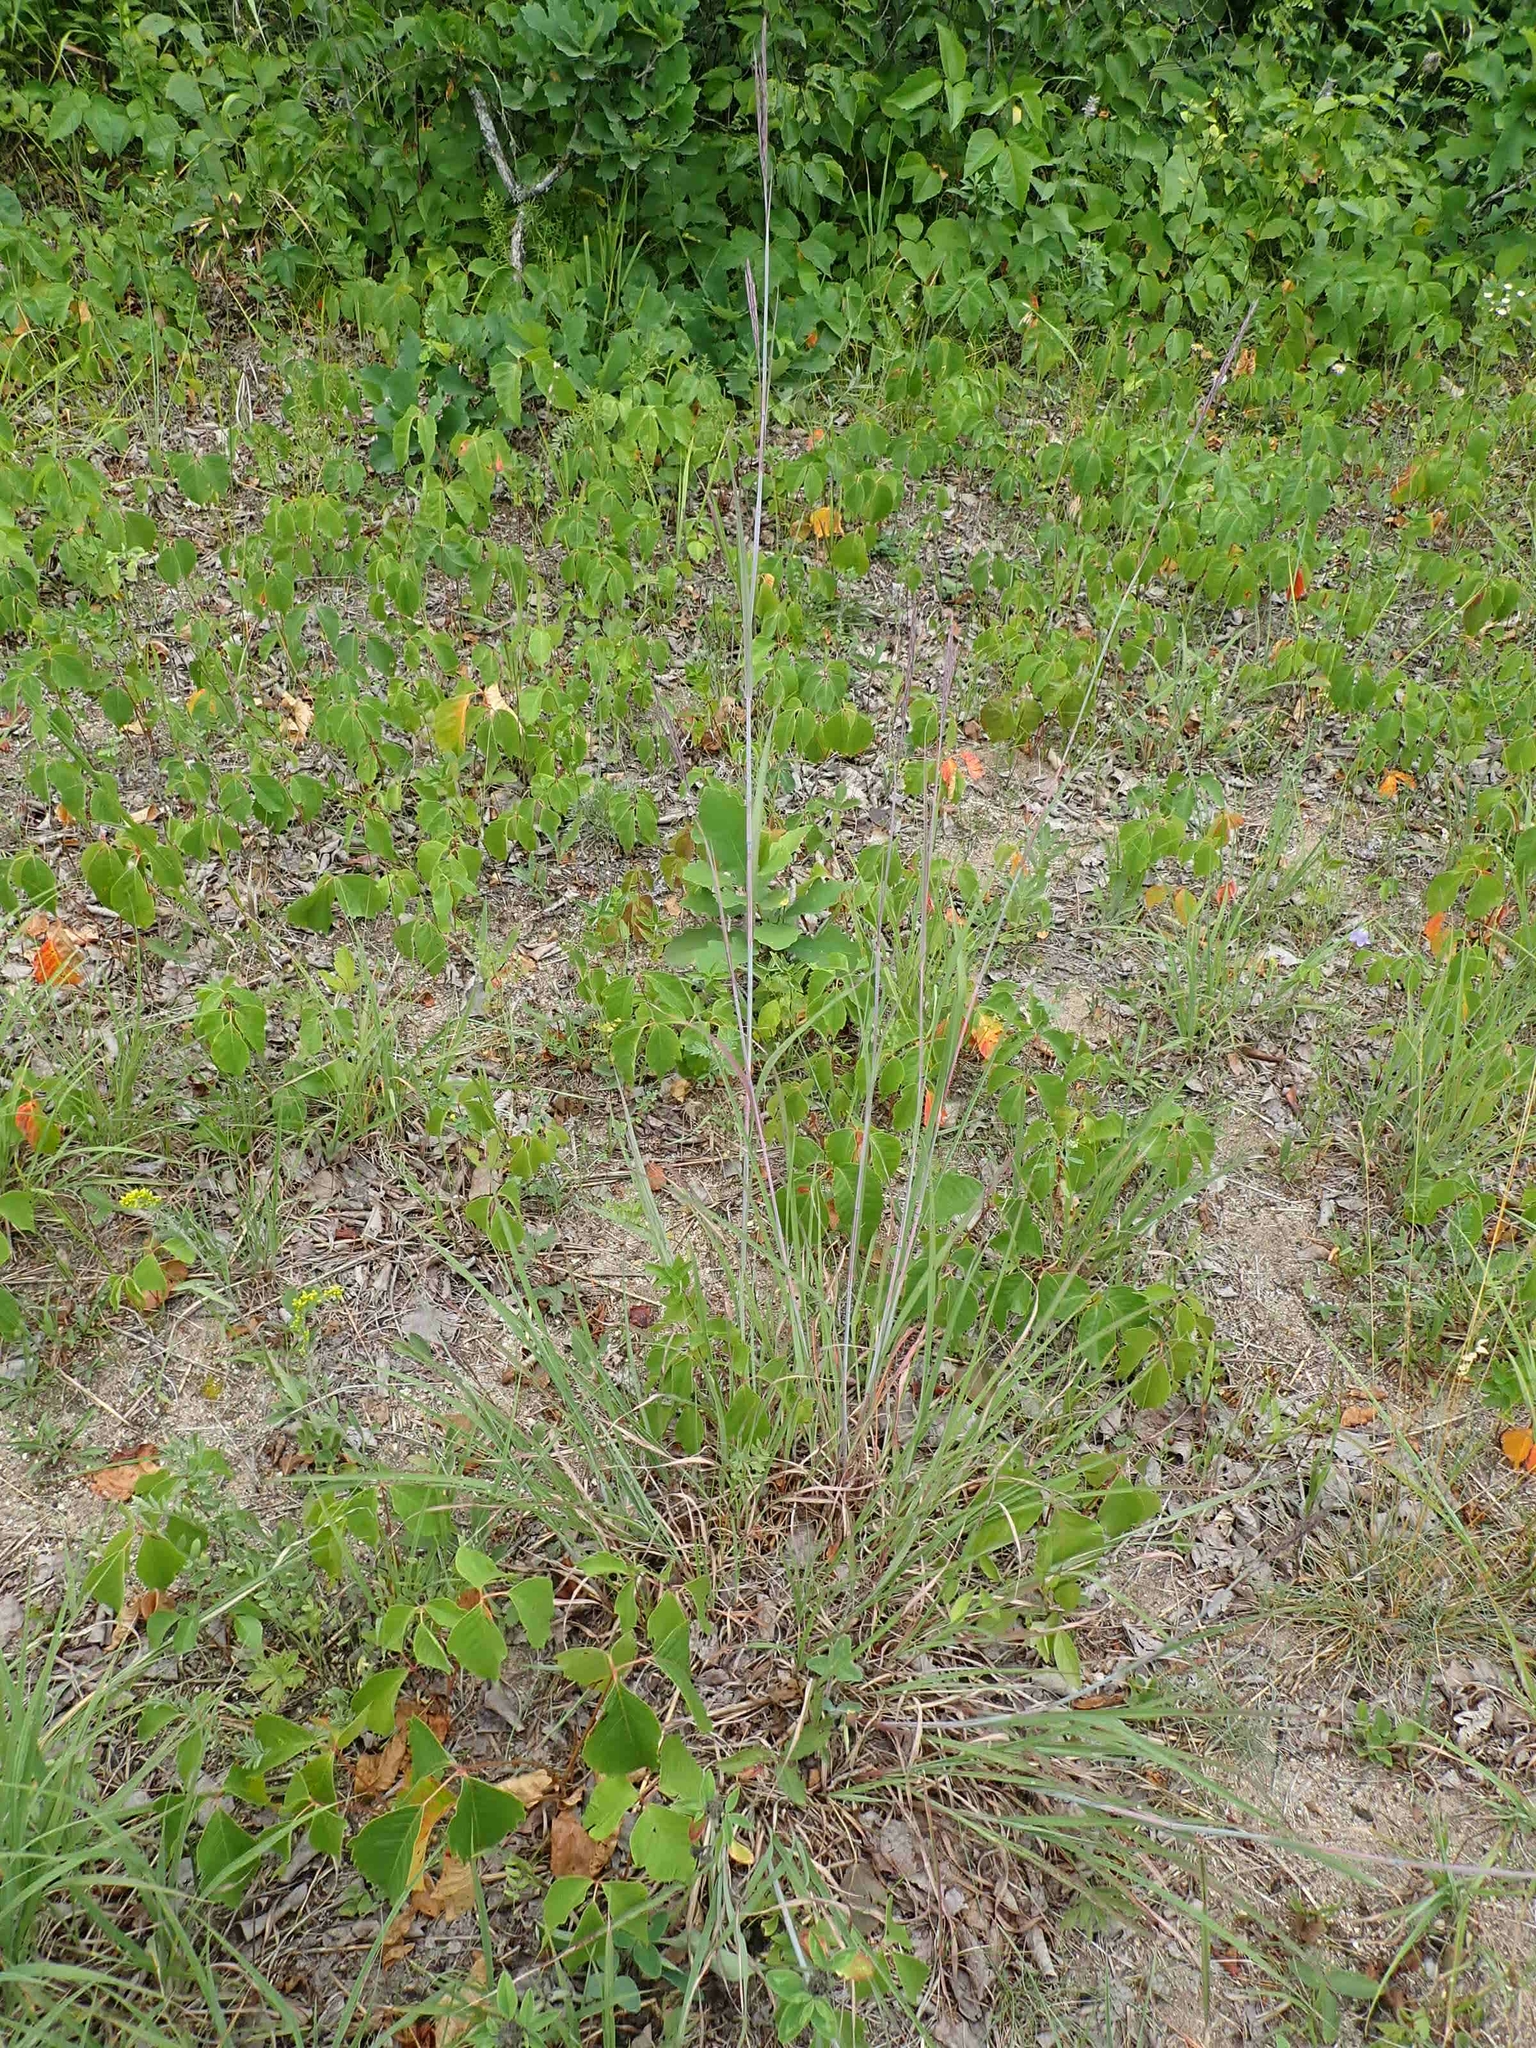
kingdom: Plantae
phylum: Tracheophyta
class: Liliopsida
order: Poales
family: Poaceae
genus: Andropogon
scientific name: Andropogon gerardi
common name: Big bluestem
